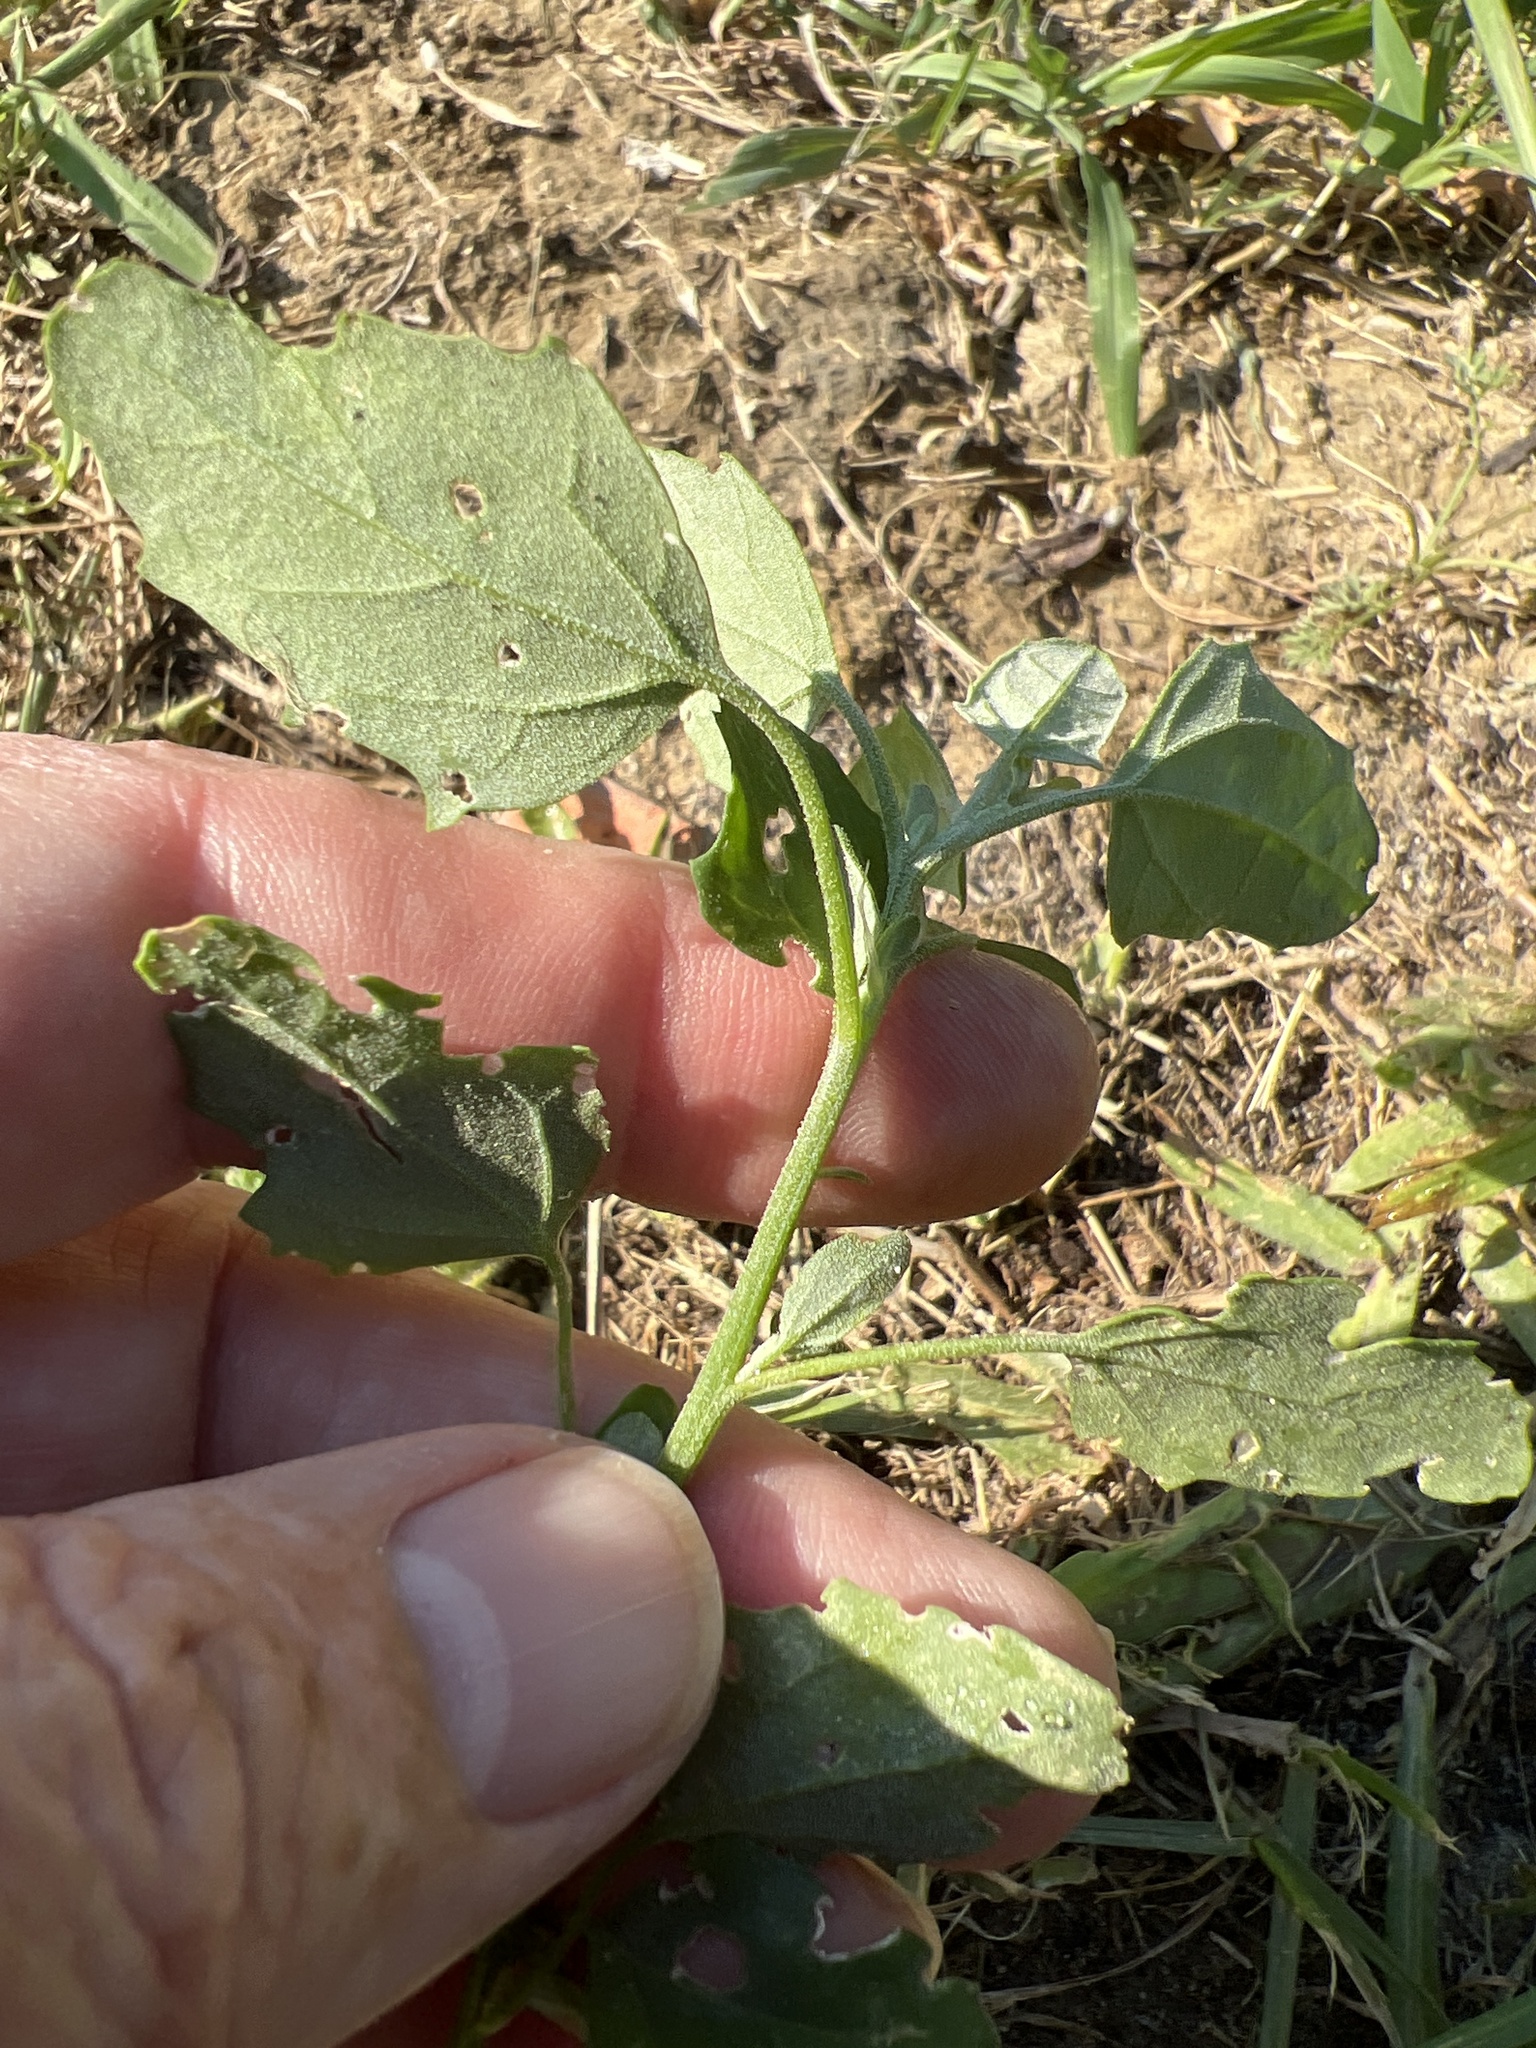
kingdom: Plantae
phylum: Tracheophyta
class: Magnoliopsida
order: Caryophyllales
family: Amaranthaceae
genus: Chenopodium
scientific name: Chenopodium album
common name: Fat-hen
